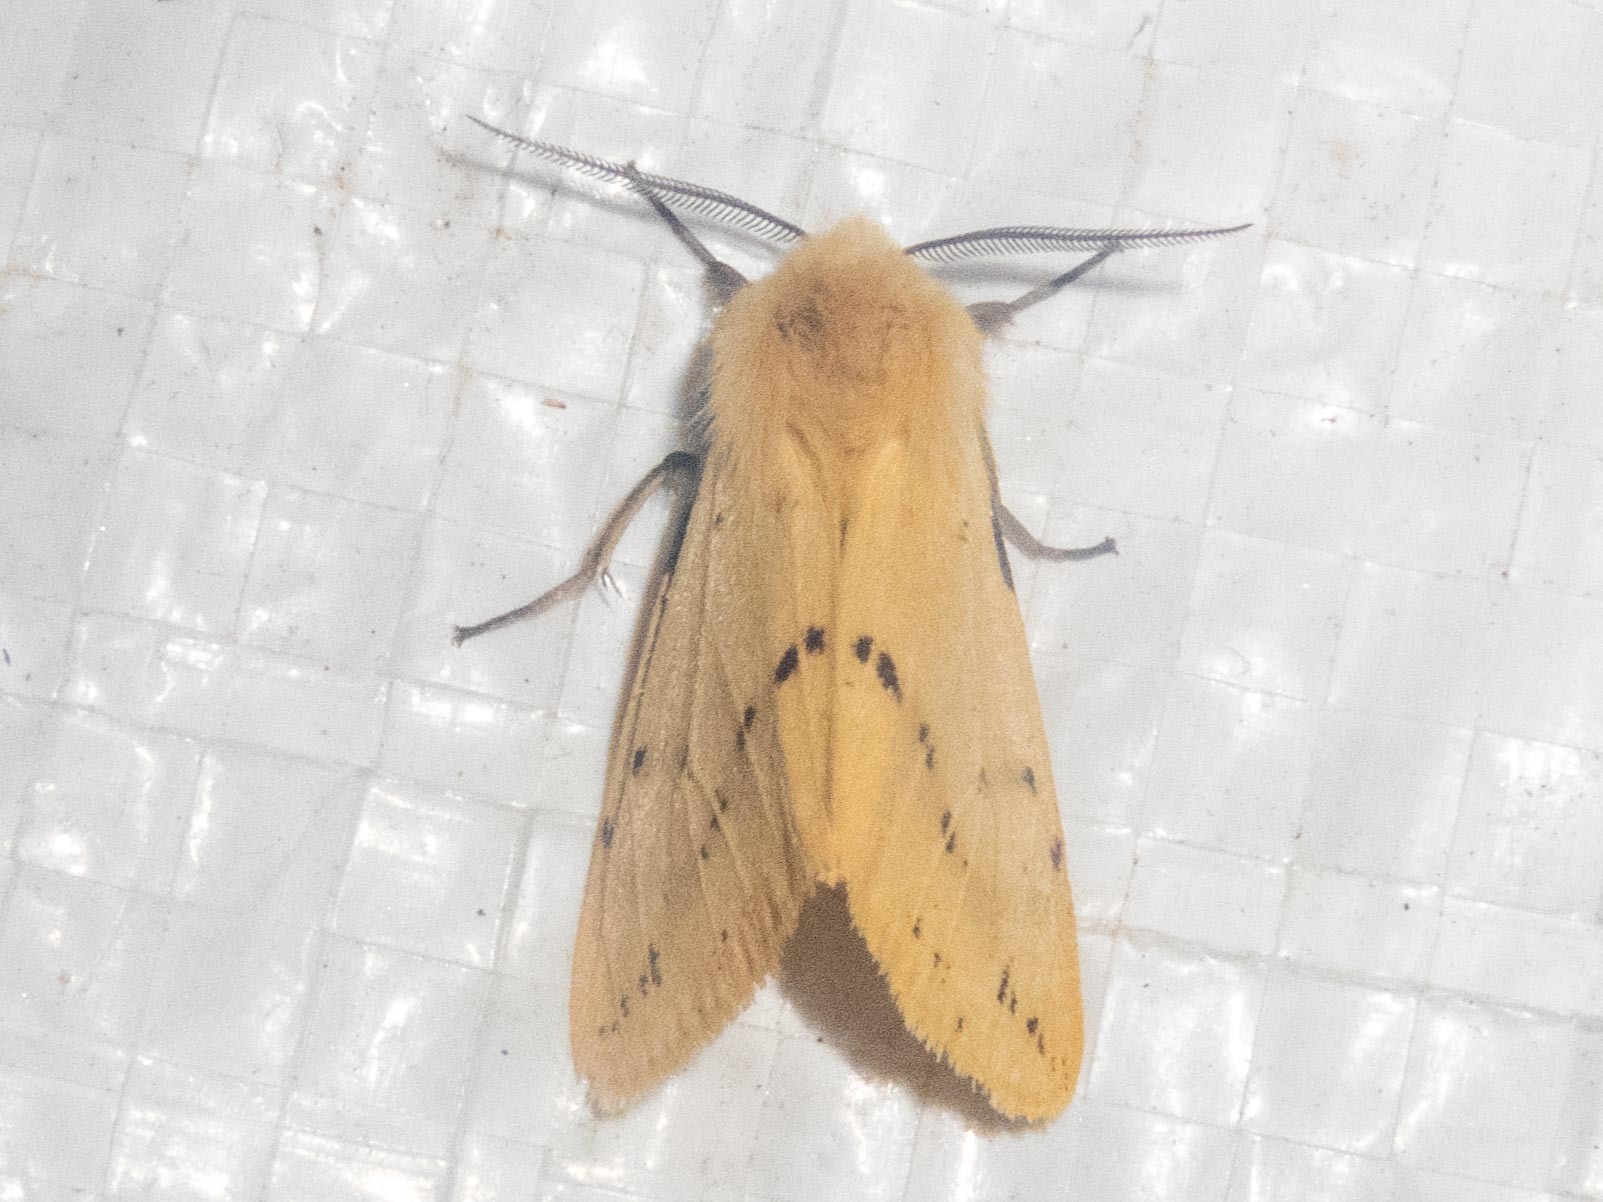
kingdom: Animalia
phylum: Arthropoda
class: Insecta
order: Lepidoptera
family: Erebidae
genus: Spilarctia
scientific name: Spilarctia lutea
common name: Buff ermine
